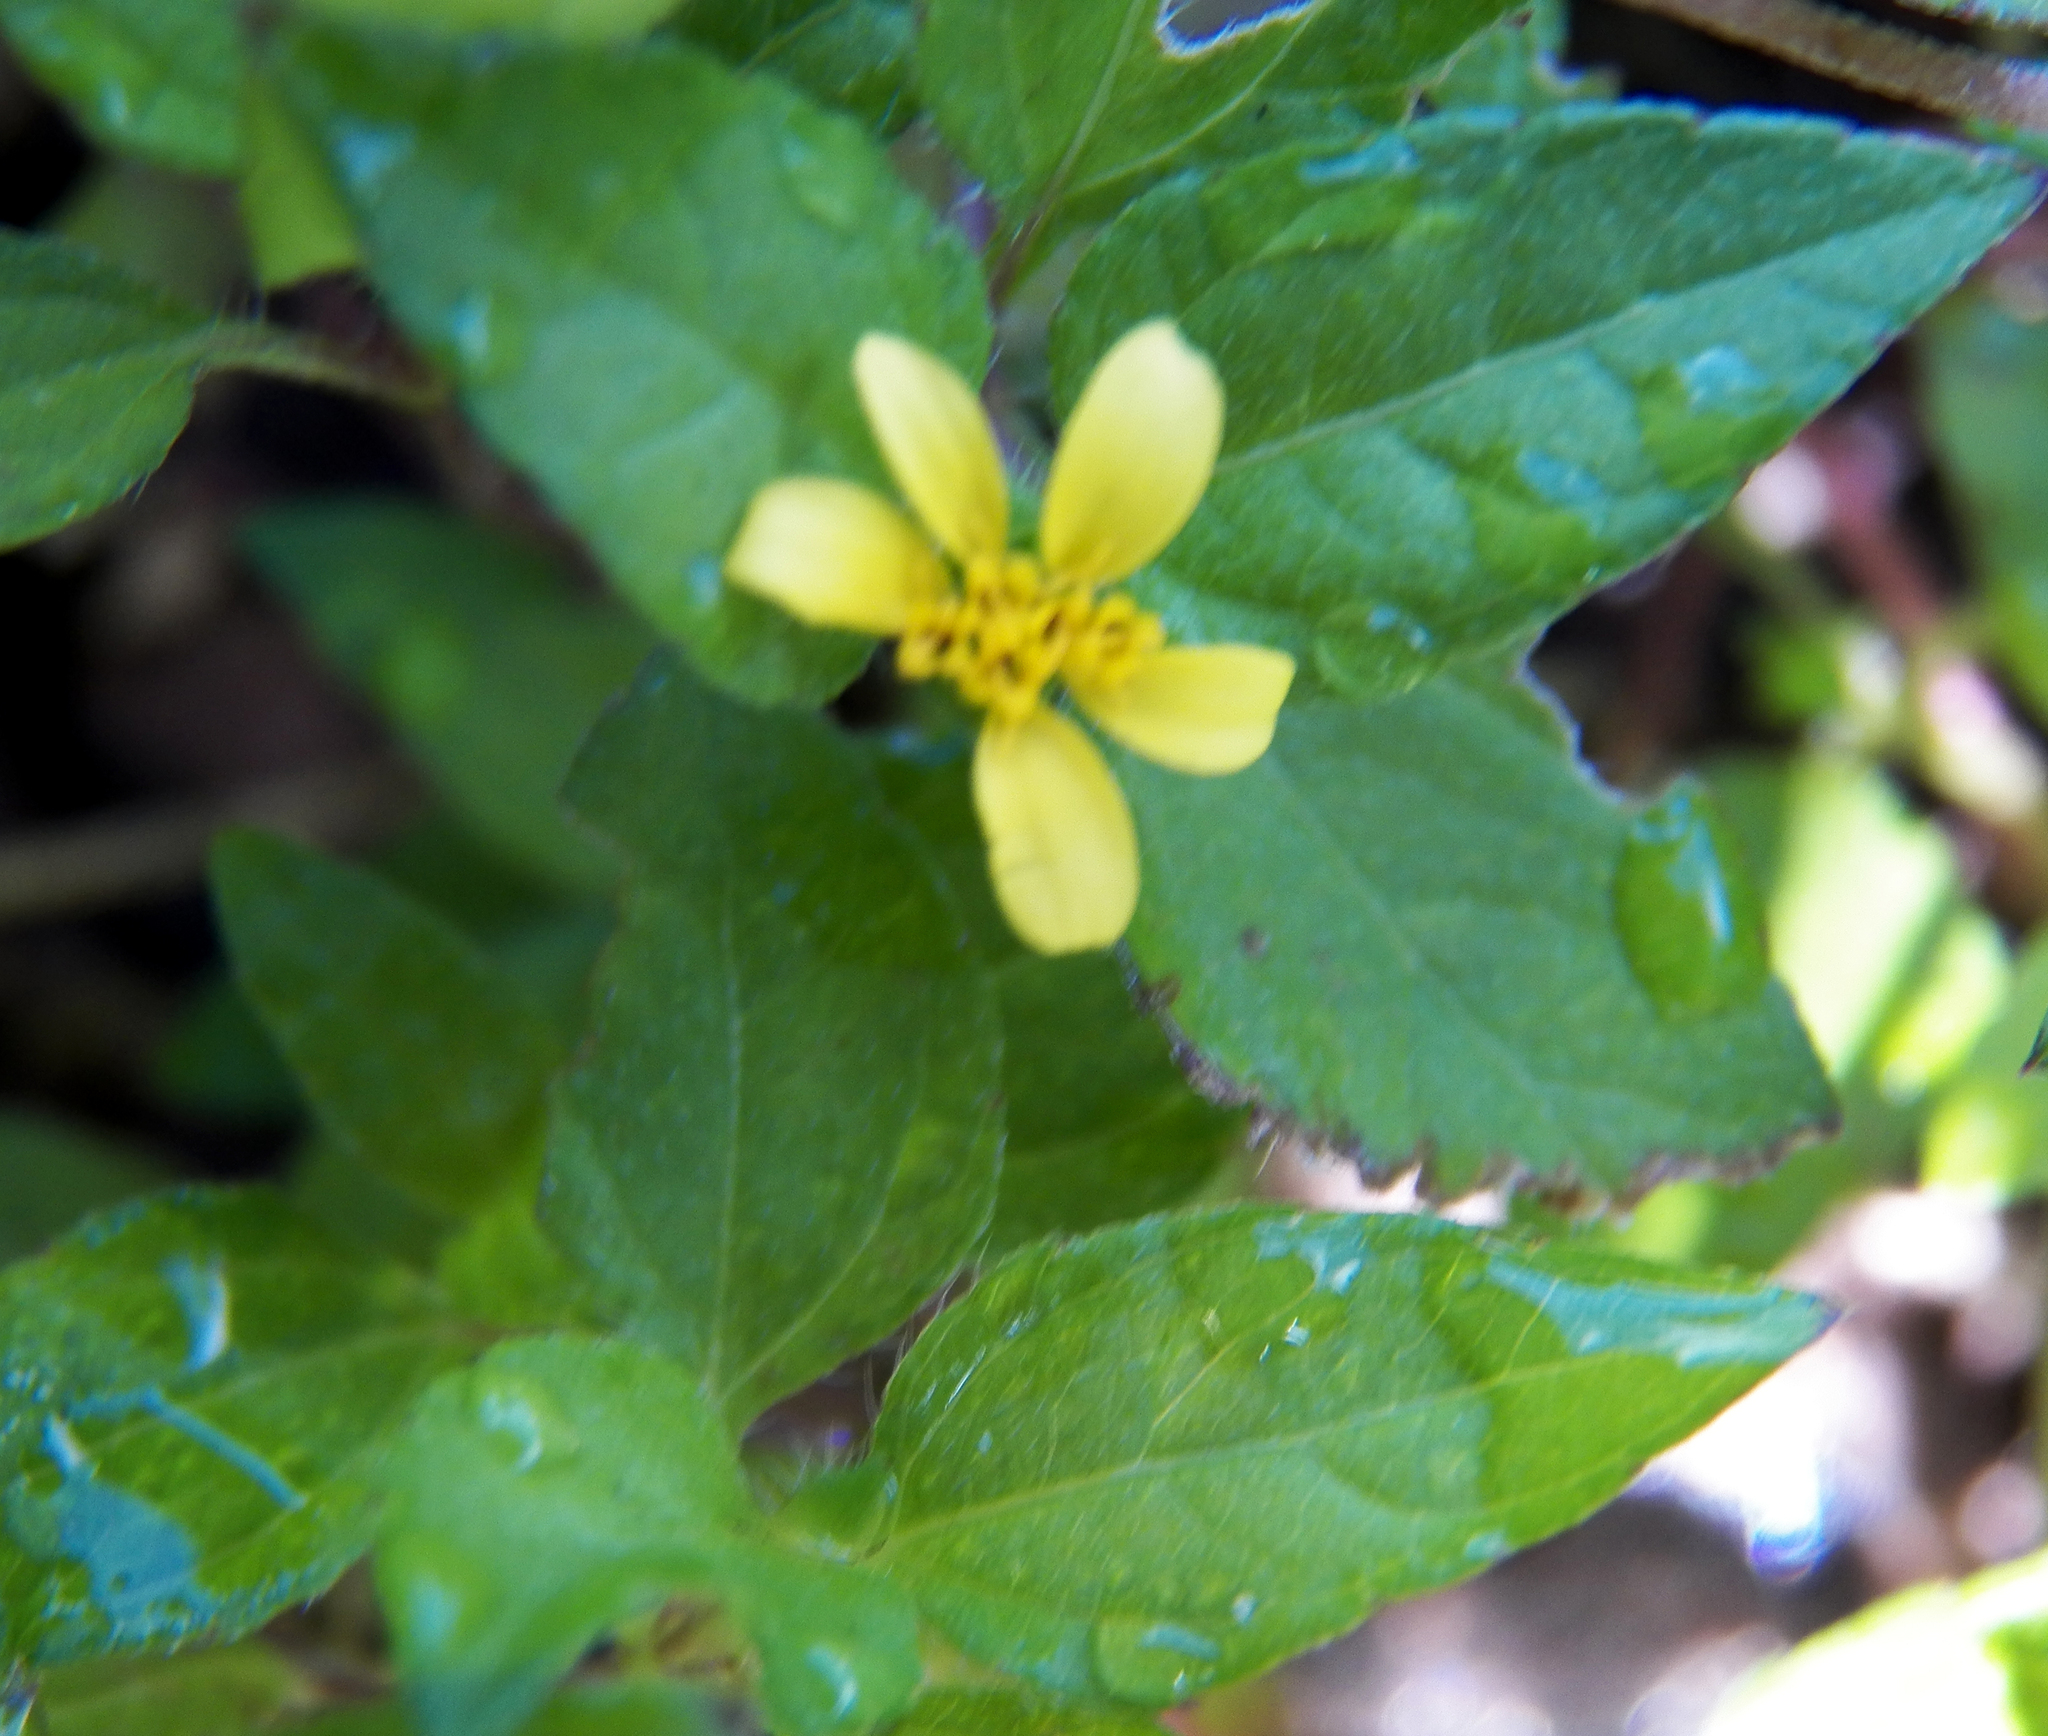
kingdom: Plantae
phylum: Tracheophyta
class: Magnoliopsida
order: Asterales
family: Asteraceae
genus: Calyptocarpus
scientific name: Calyptocarpus vialis
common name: Straggler daisy
